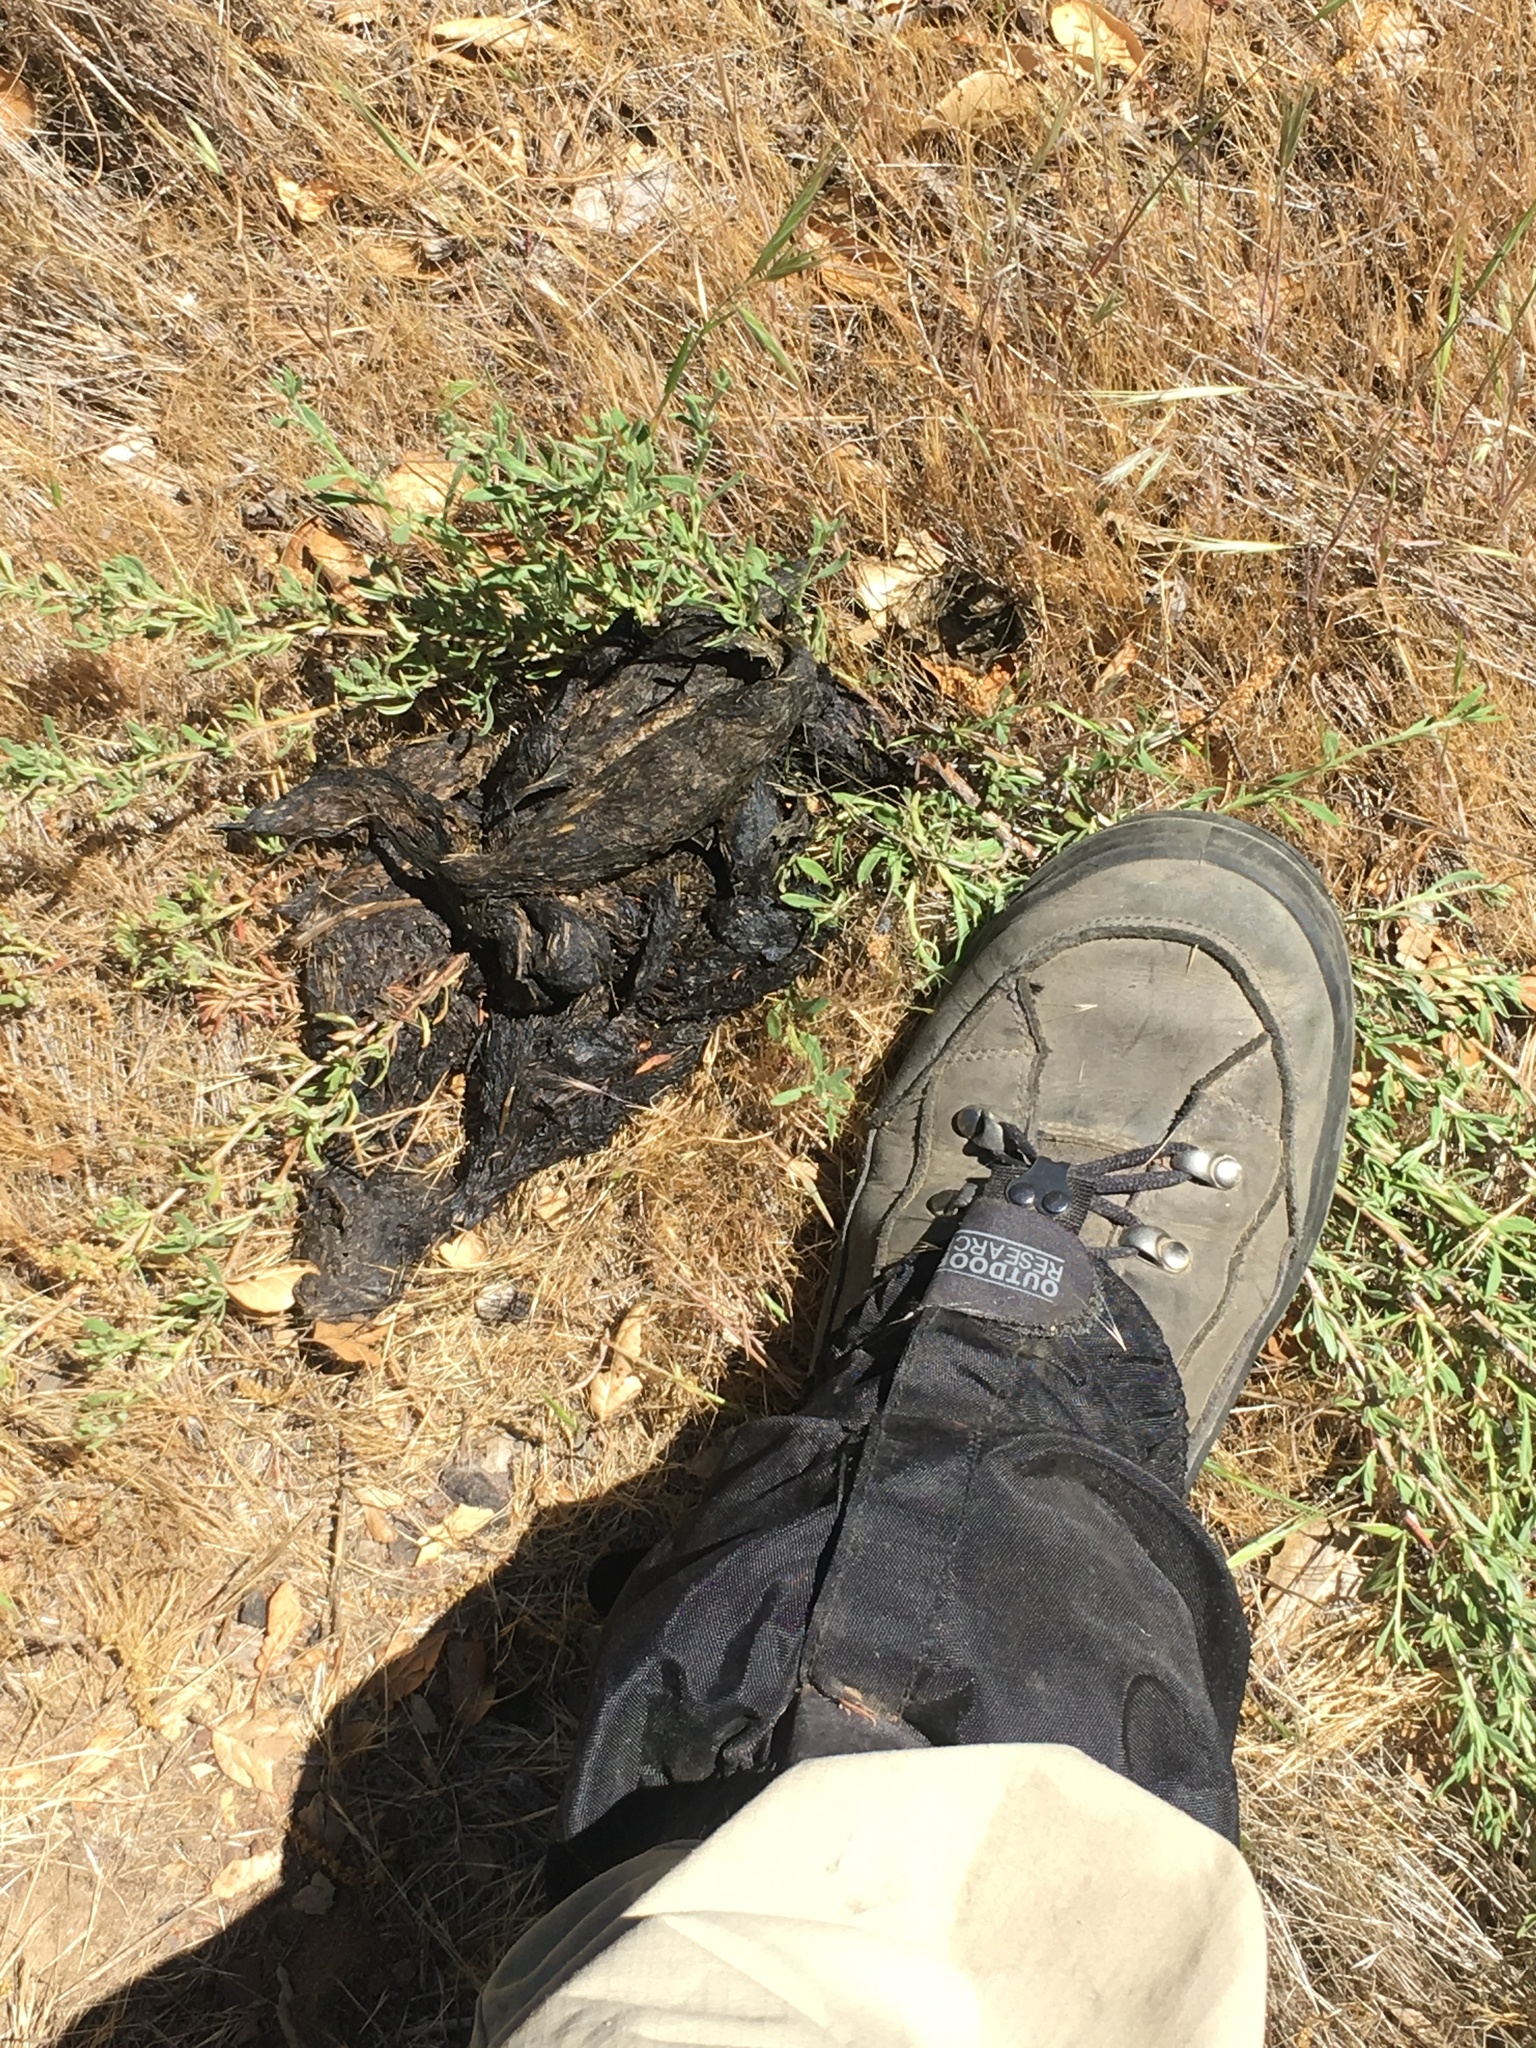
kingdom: Animalia
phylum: Chordata
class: Mammalia
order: Carnivora
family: Ursidae
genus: Ursus
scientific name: Ursus americanus
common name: American black bear
